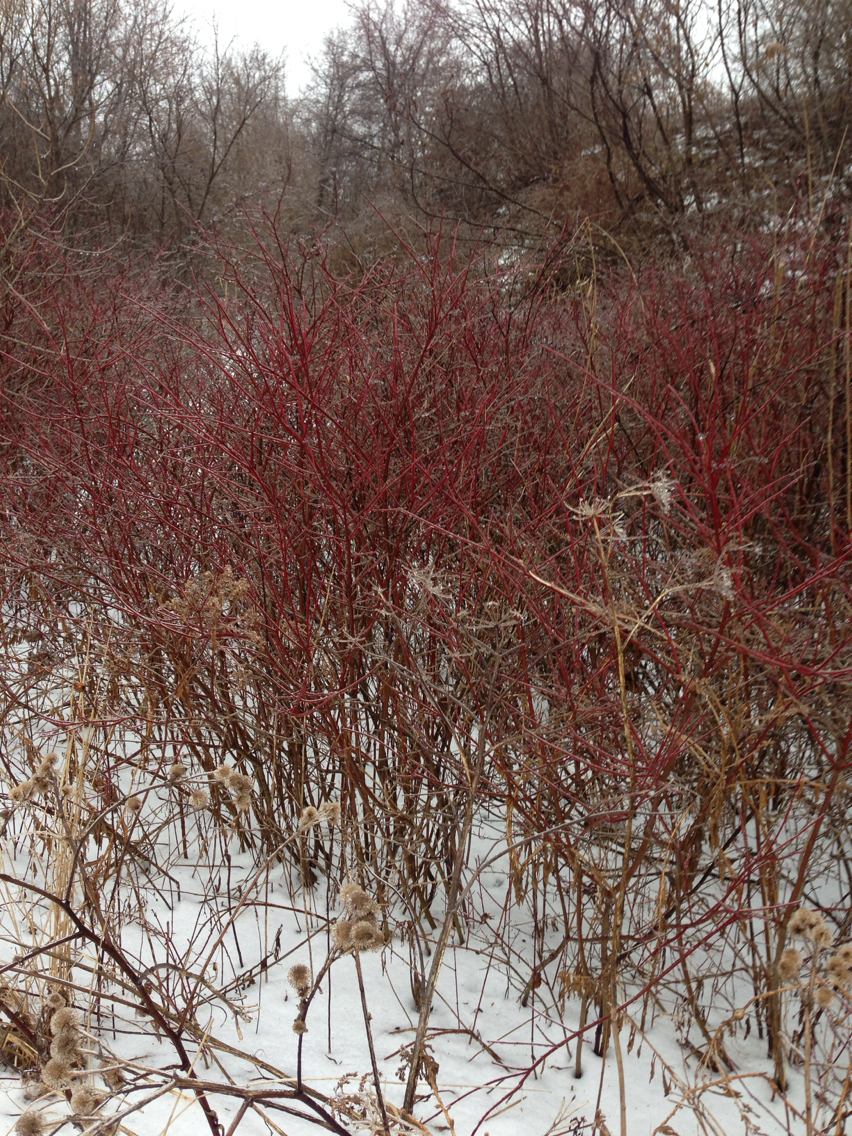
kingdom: Plantae
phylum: Tracheophyta
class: Magnoliopsida
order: Cornales
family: Cornaceae
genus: Cornus
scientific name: Cornus sericea
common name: Red-osier dogwood
